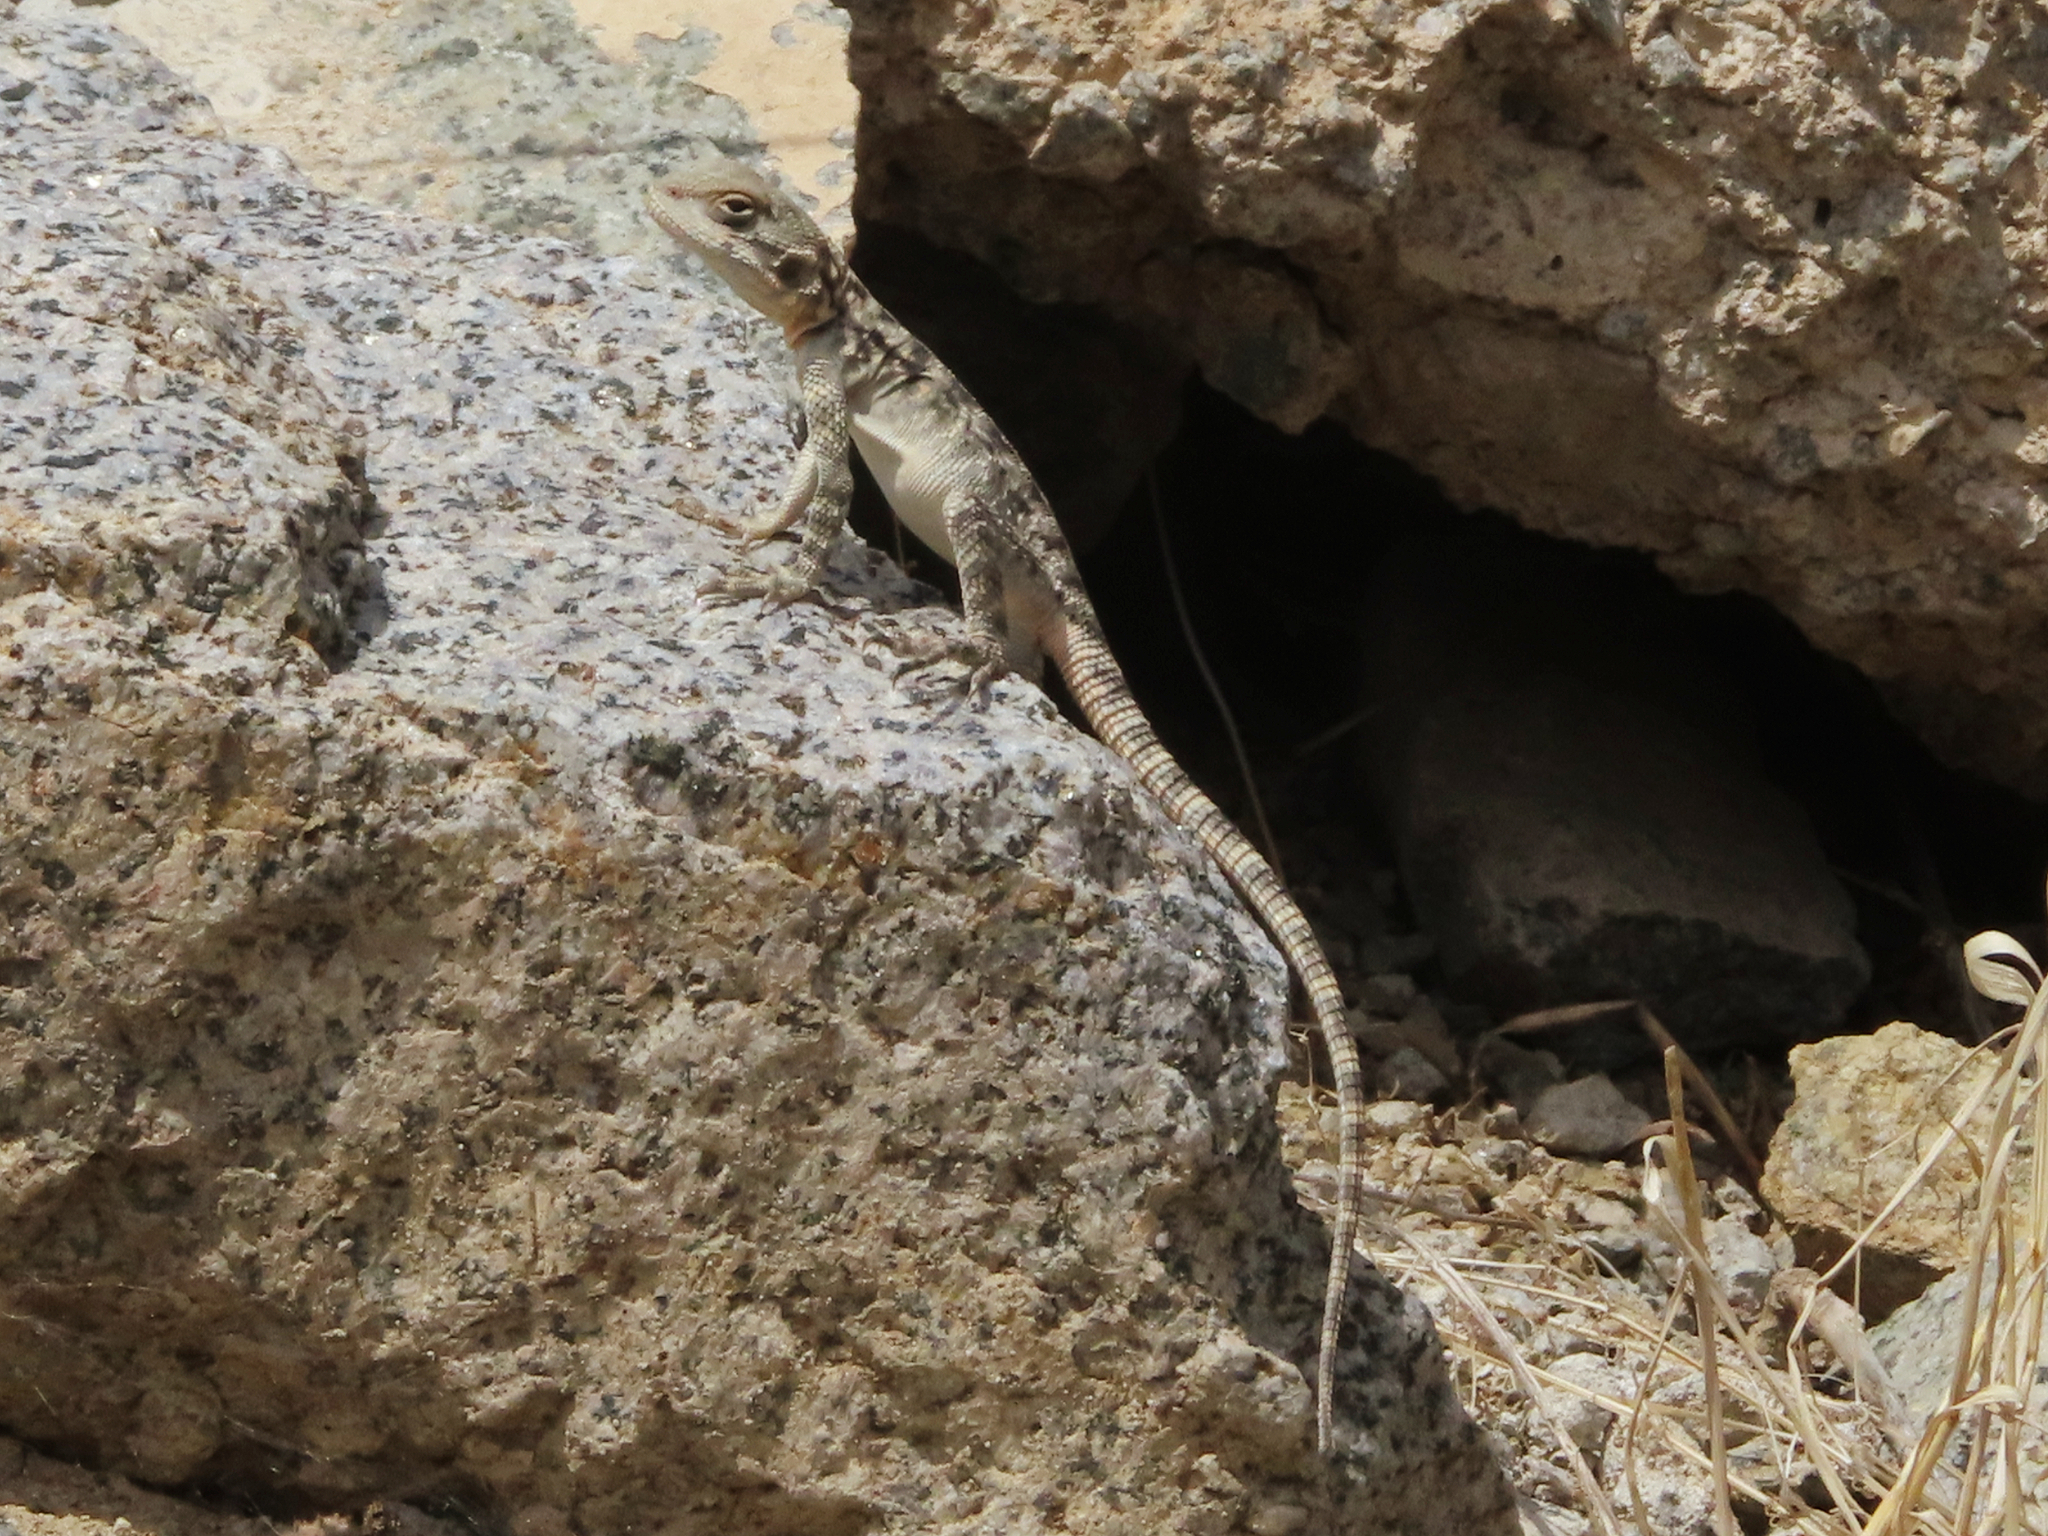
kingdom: Animalia
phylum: Chordata
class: Squamata
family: Agamidae
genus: Paralaudakia
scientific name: Paralaudakia caucasia
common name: Caucasian agama
